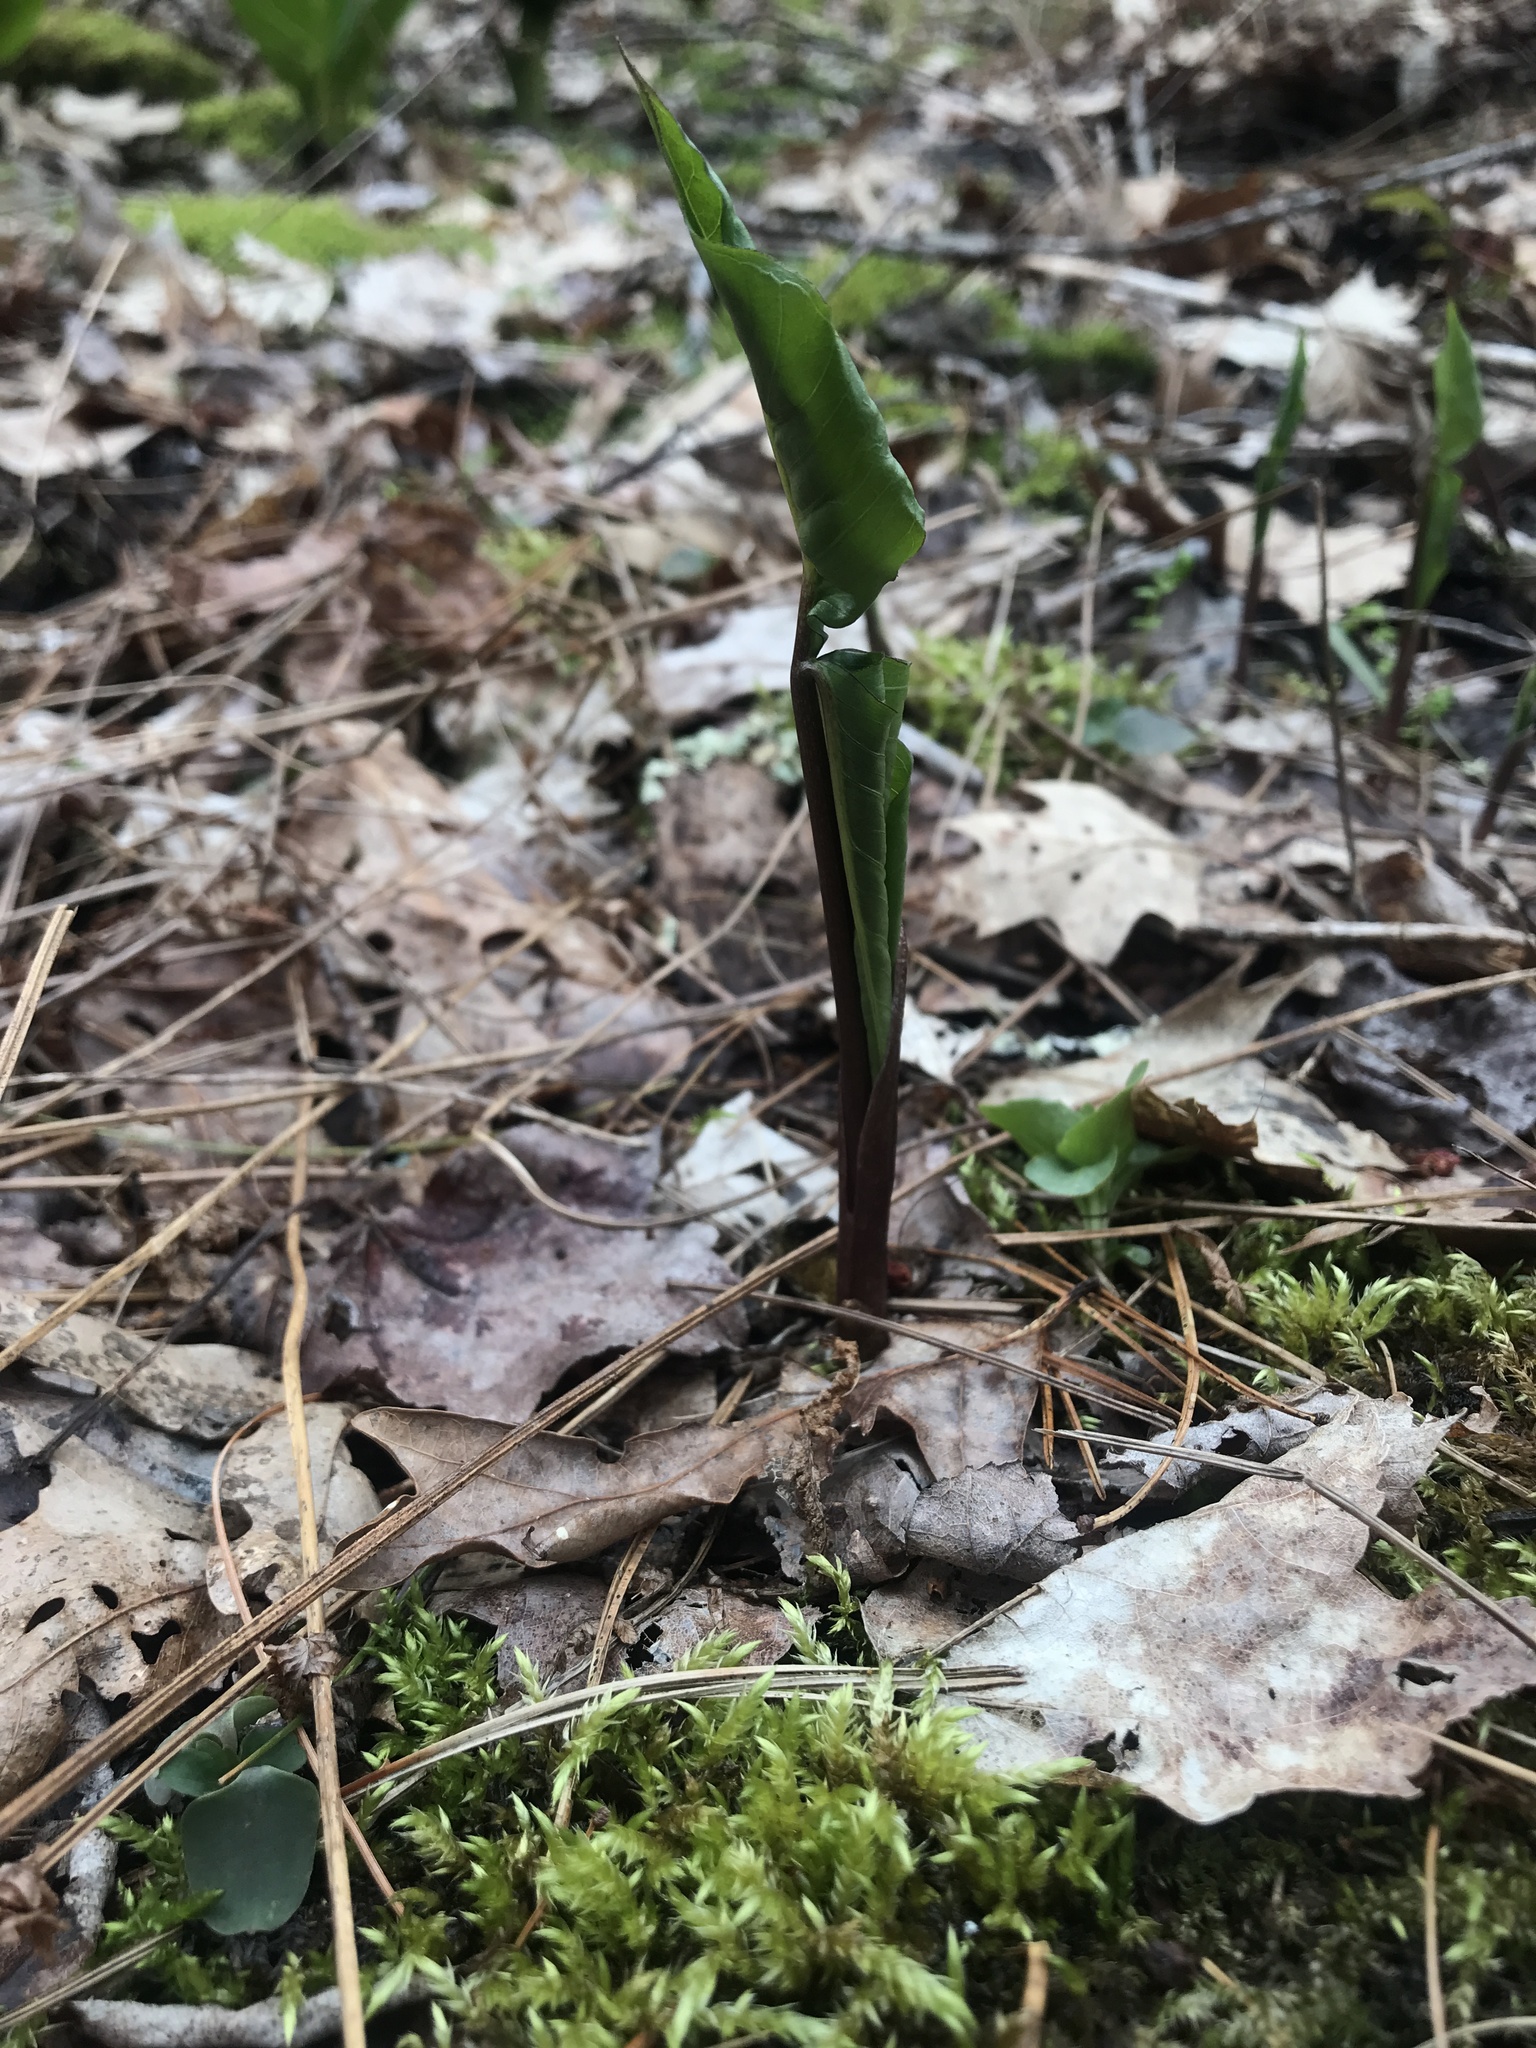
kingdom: Plantae
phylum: Tracheophyta
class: Liliopsida
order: Alismatales
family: Araceae
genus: Arisaema
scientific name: Arisaema triphyllum
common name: Jack-in-the-pulpit
